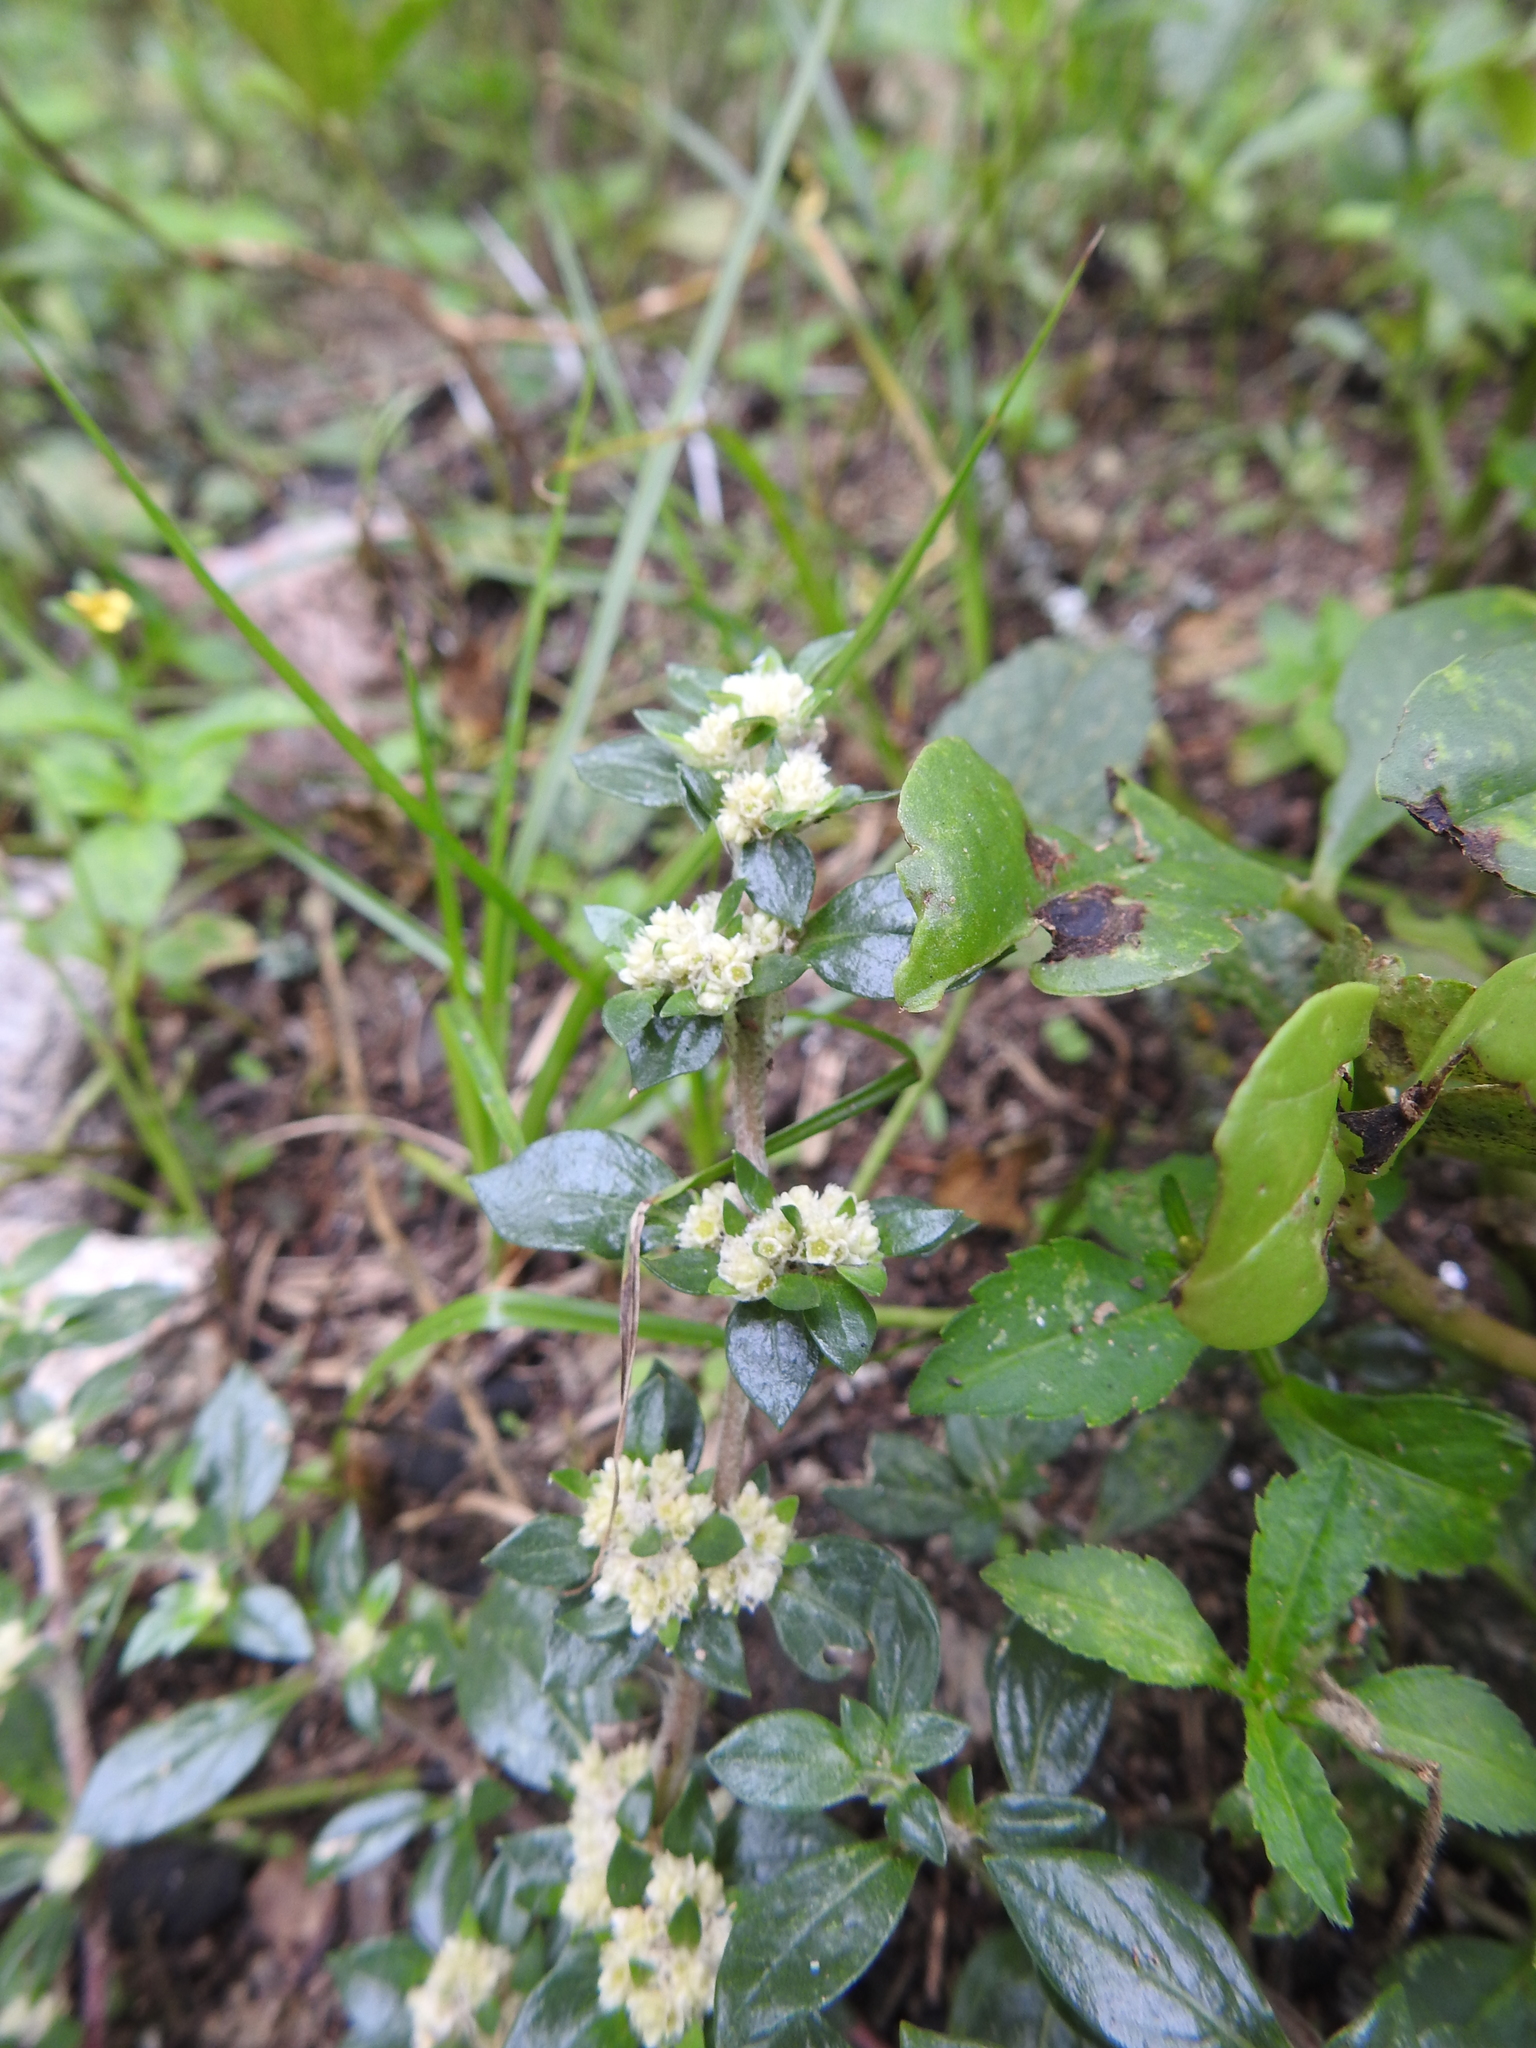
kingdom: Plantae
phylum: Tracheophyta
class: Magnoliopsida
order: Caryophyllales
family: Amaranthaceae
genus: Guilleminea
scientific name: Guilleminea densa
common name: Small matweed
